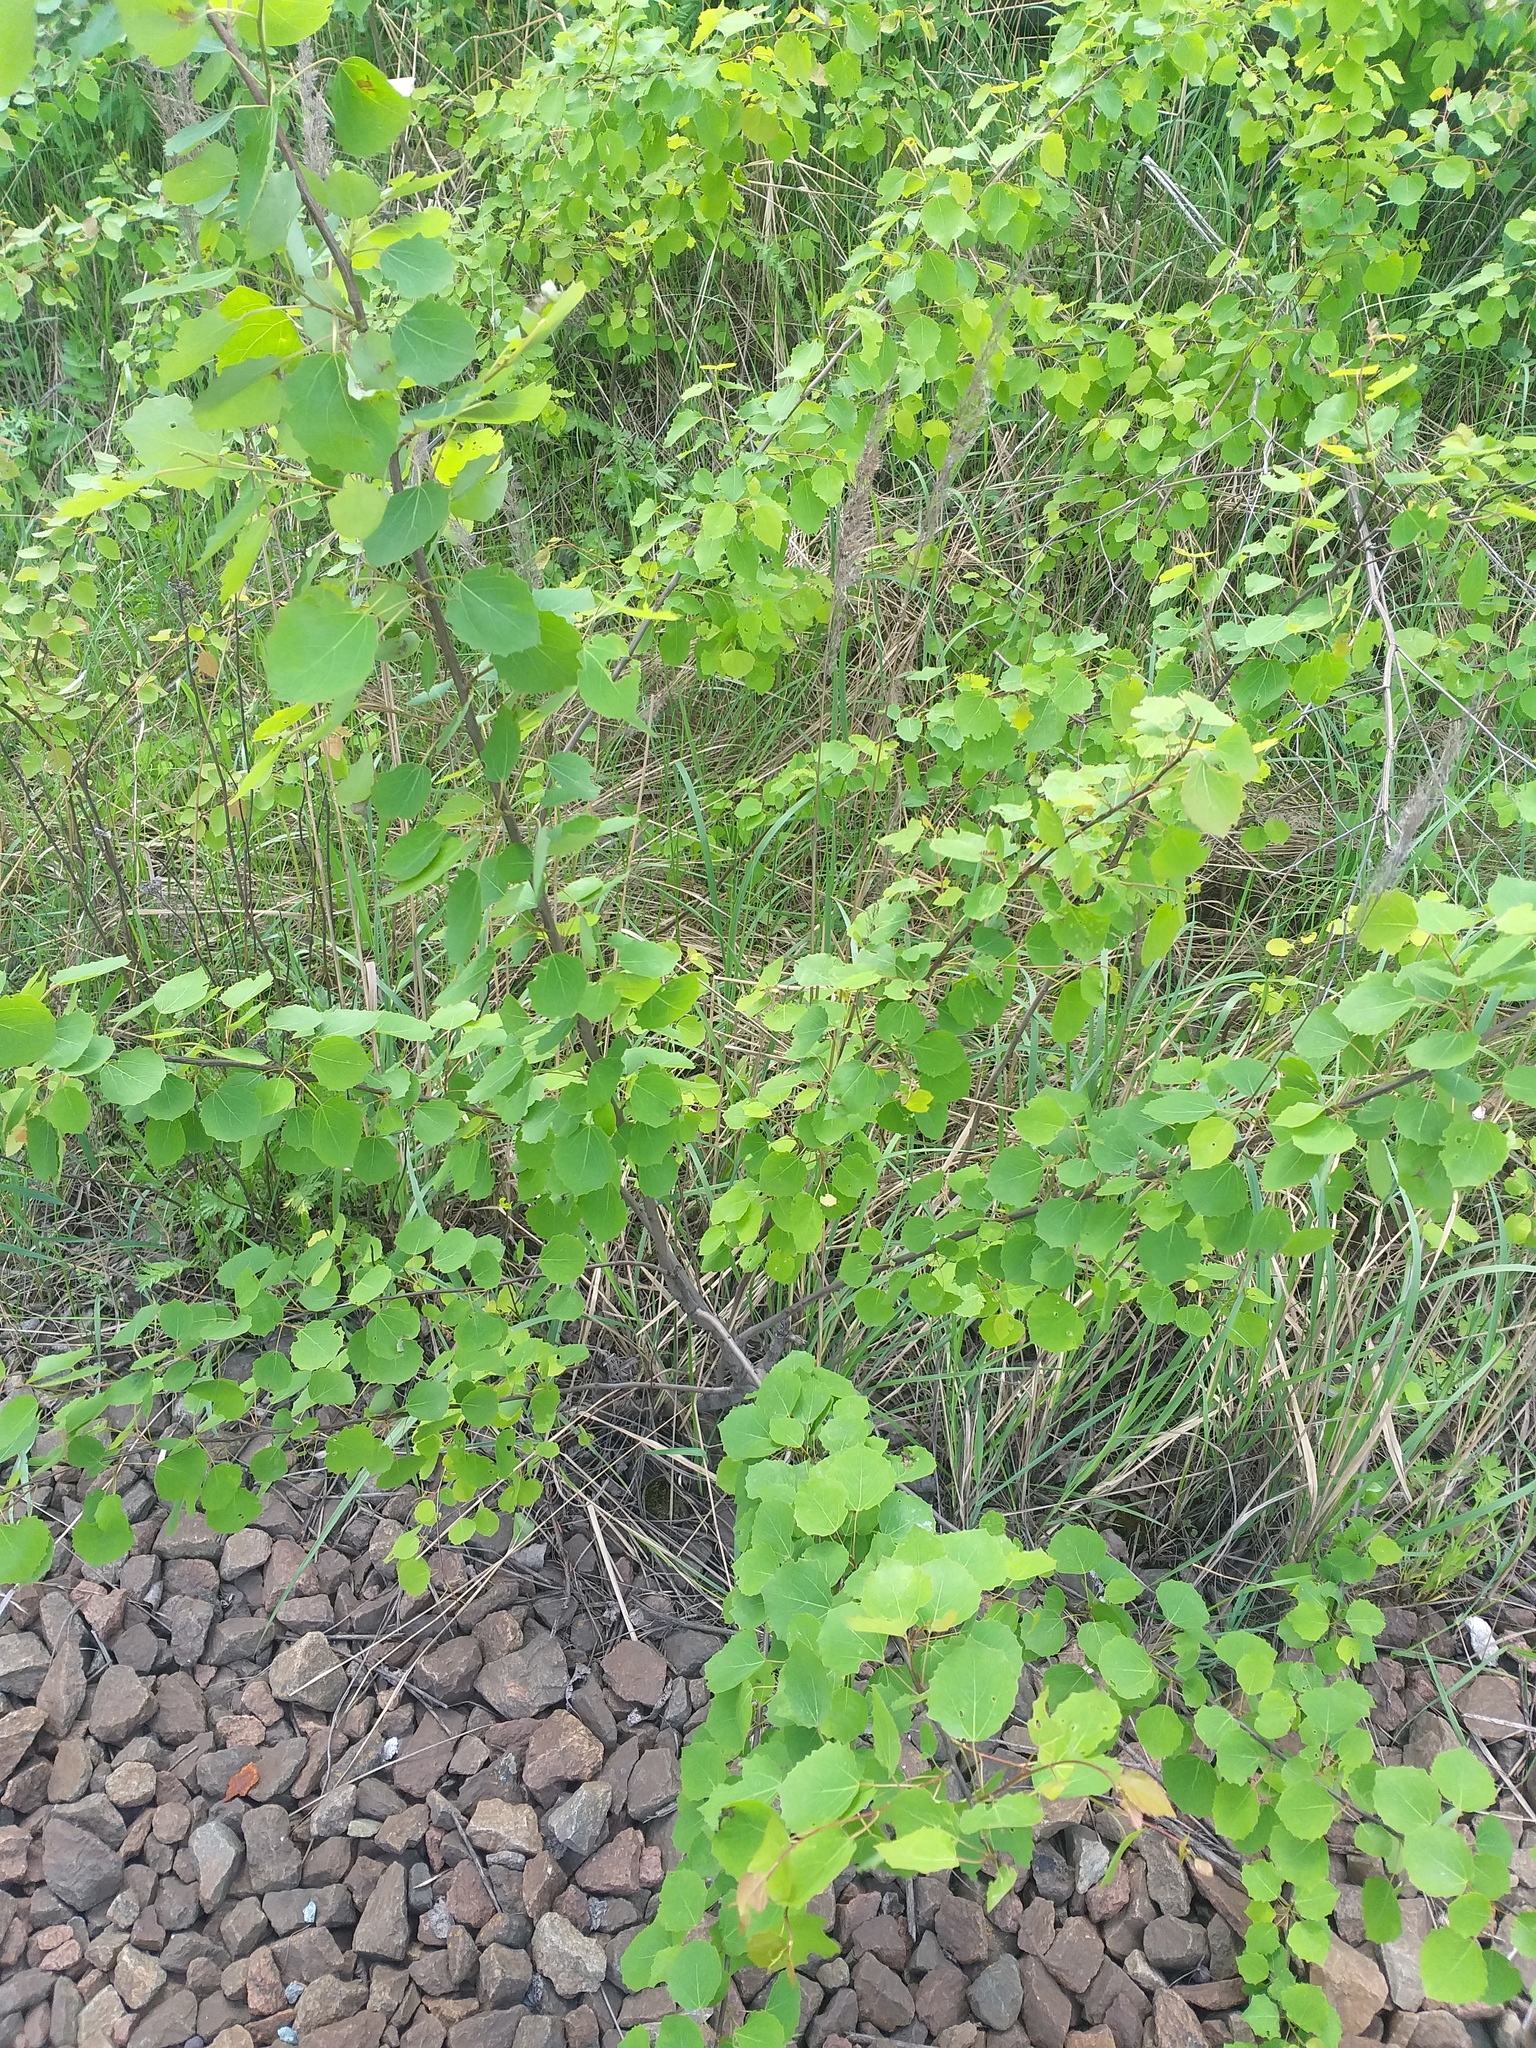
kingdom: Plantae
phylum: Tracheophyta
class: Magnoliopsida
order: Malpighiales
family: Salicaceae
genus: Populus
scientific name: Populus tremula
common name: European aspen
